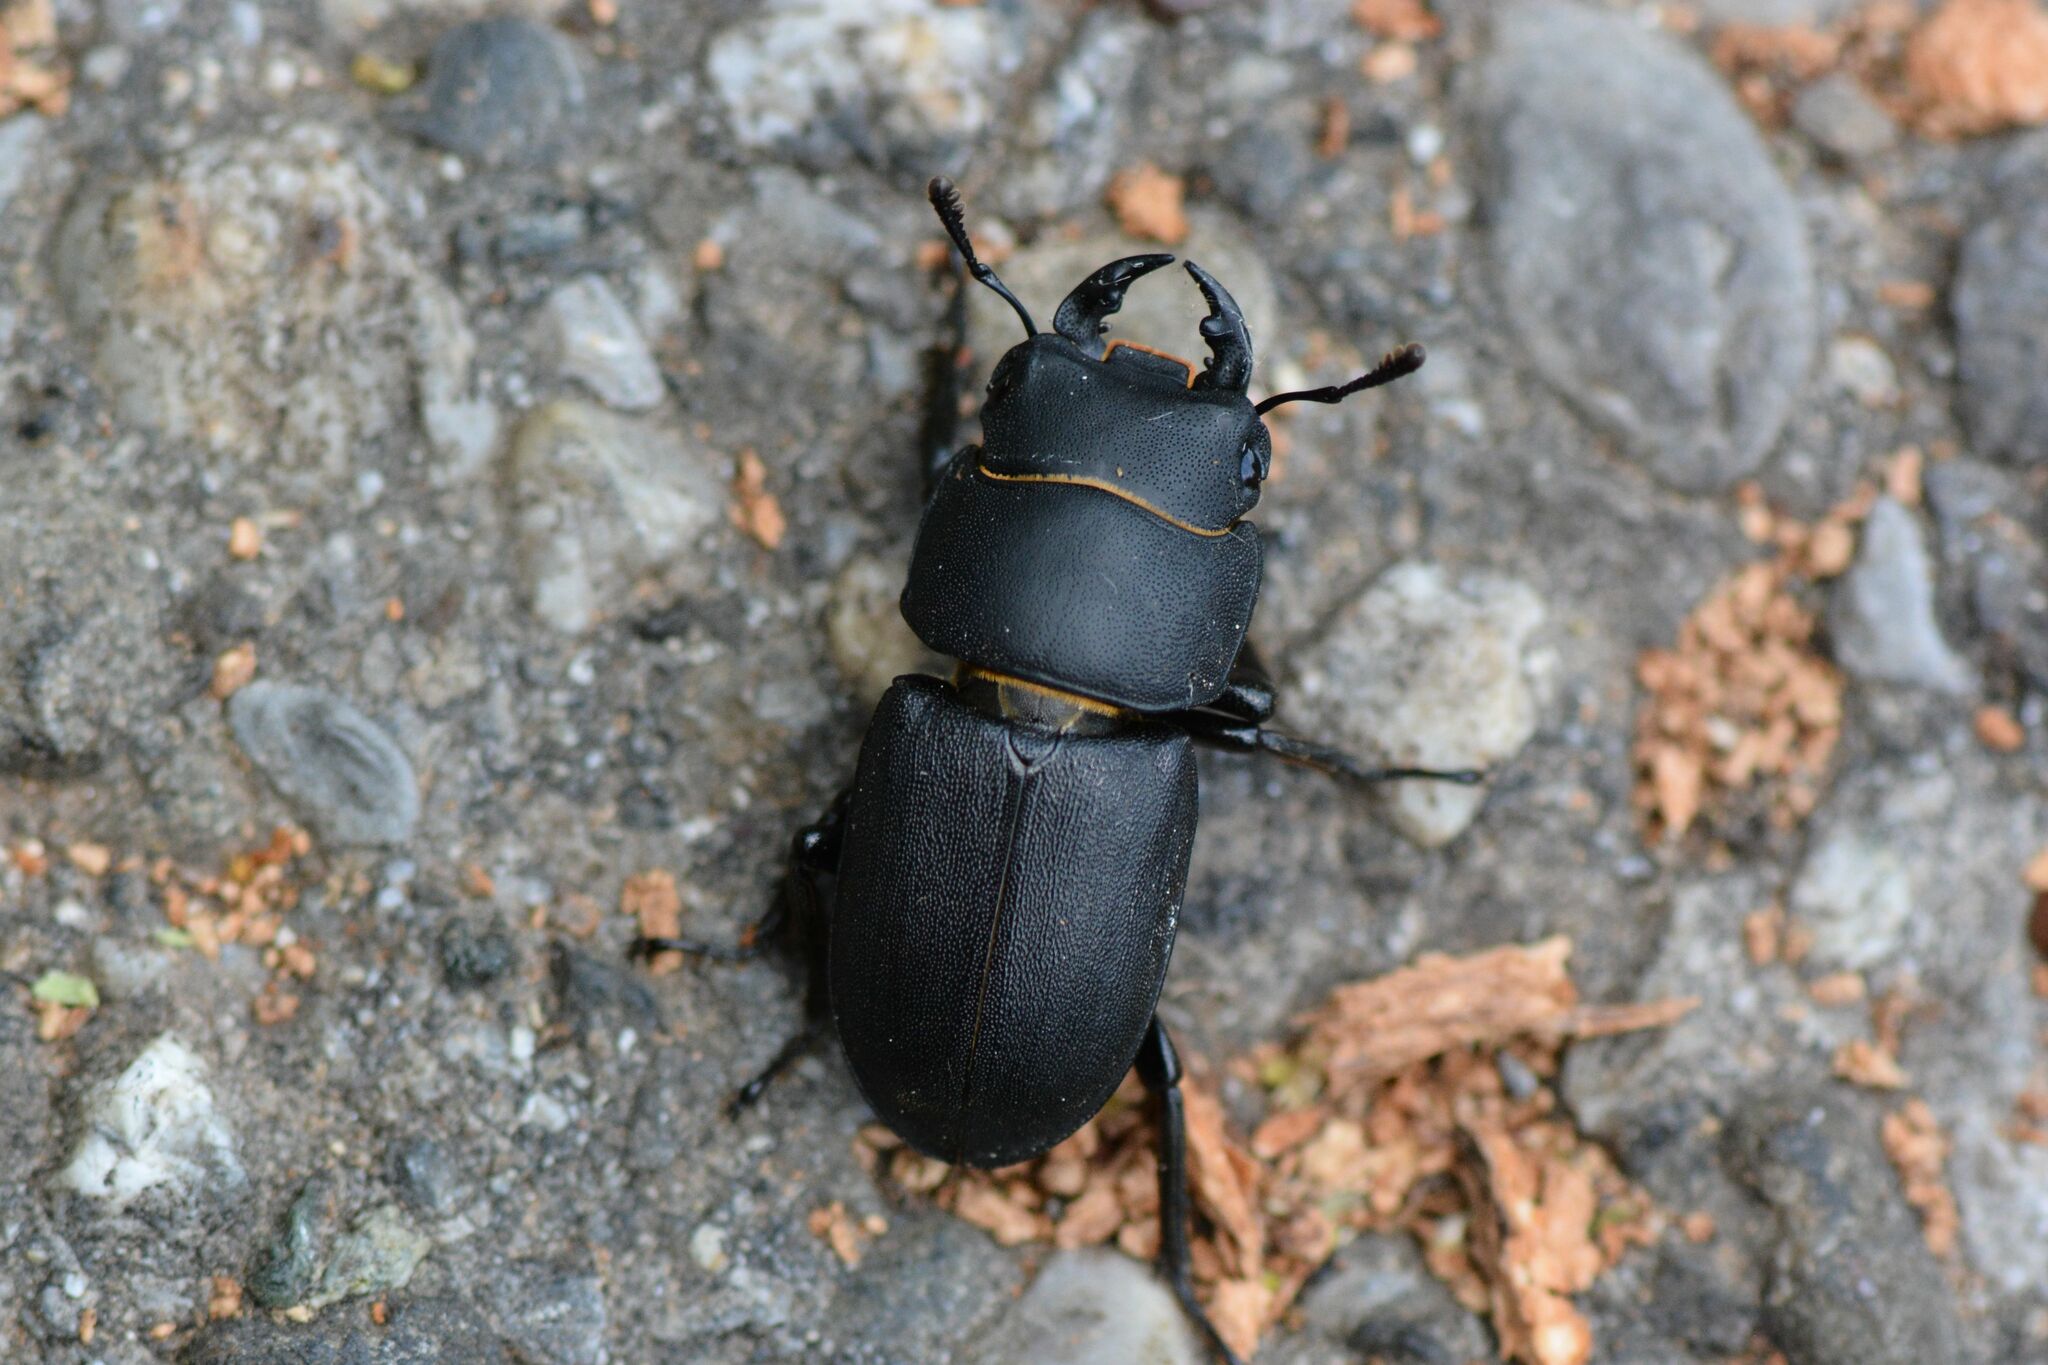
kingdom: Animalia
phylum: Arthropoda
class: Insecta
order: Coleoptera
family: Lucanidae
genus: Dorcus
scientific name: Dorcus parallelipipedus
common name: Lesser stag beetle
